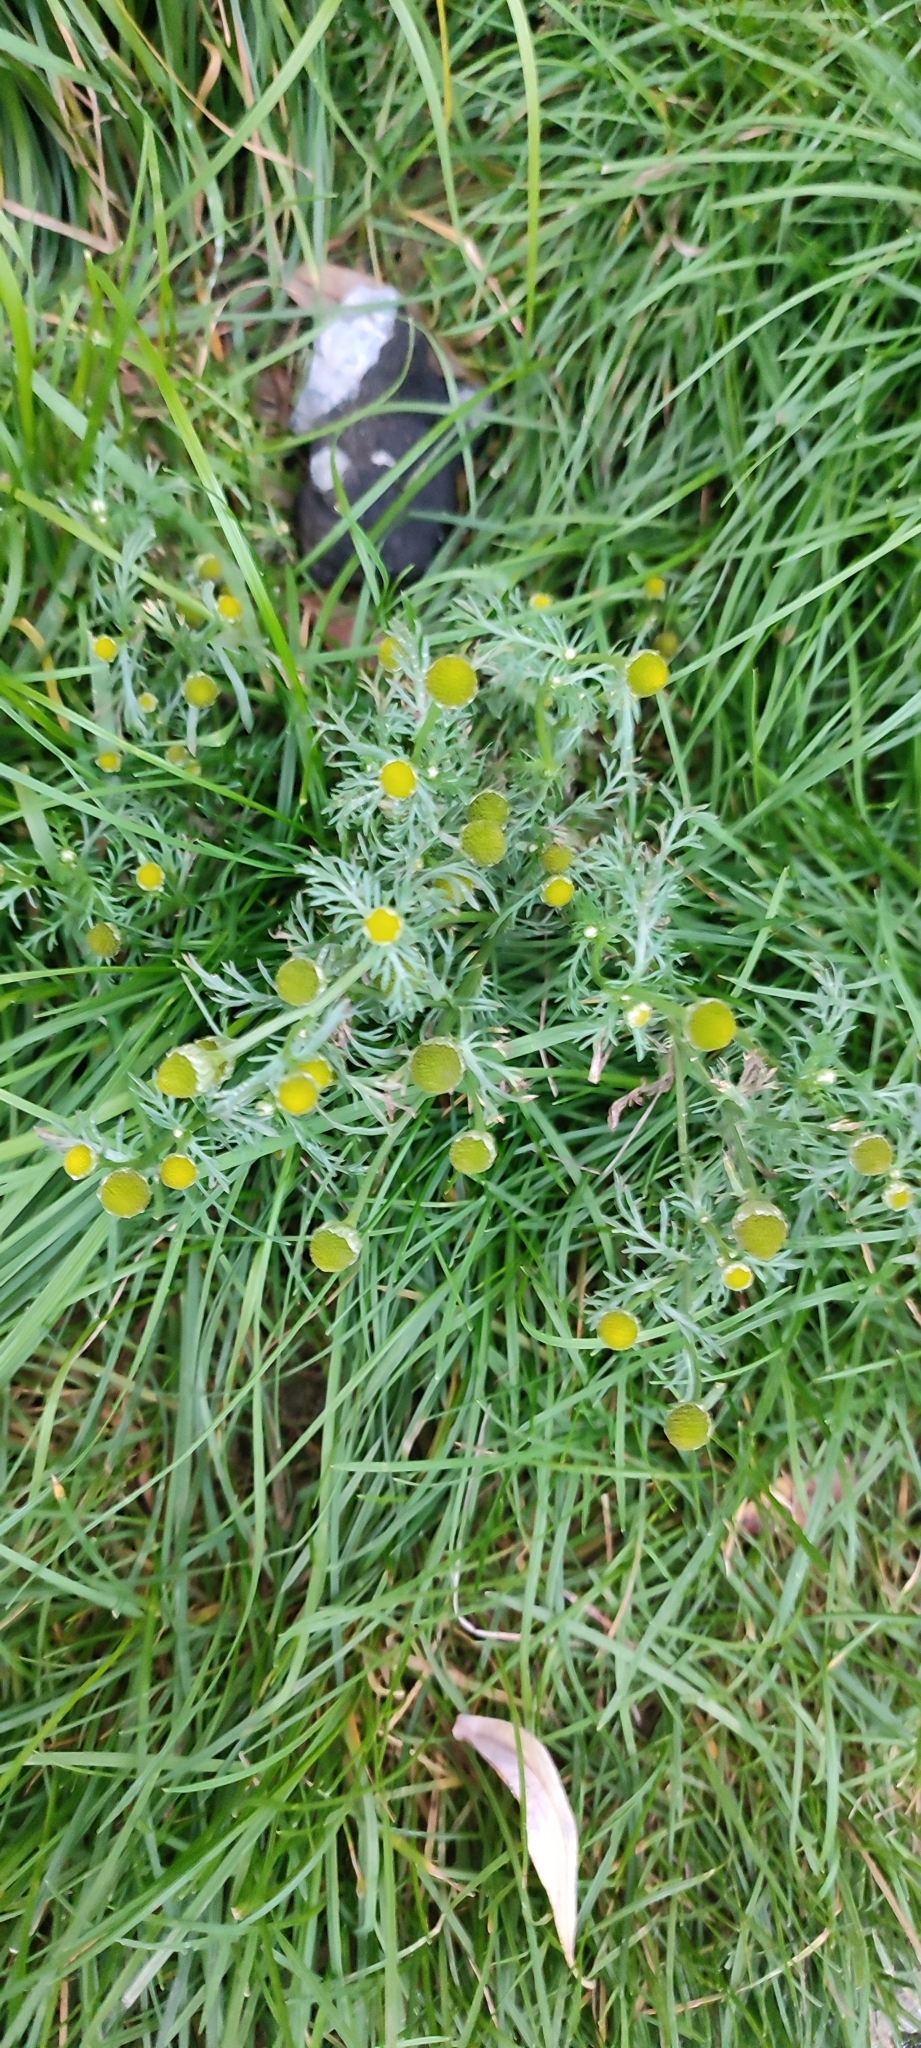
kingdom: Plantae
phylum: Tracheophyta
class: Magnoliopsida
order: Asterales
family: Asteraceae
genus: Matricaria
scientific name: Matricaria discoidea
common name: Disc mayweed
